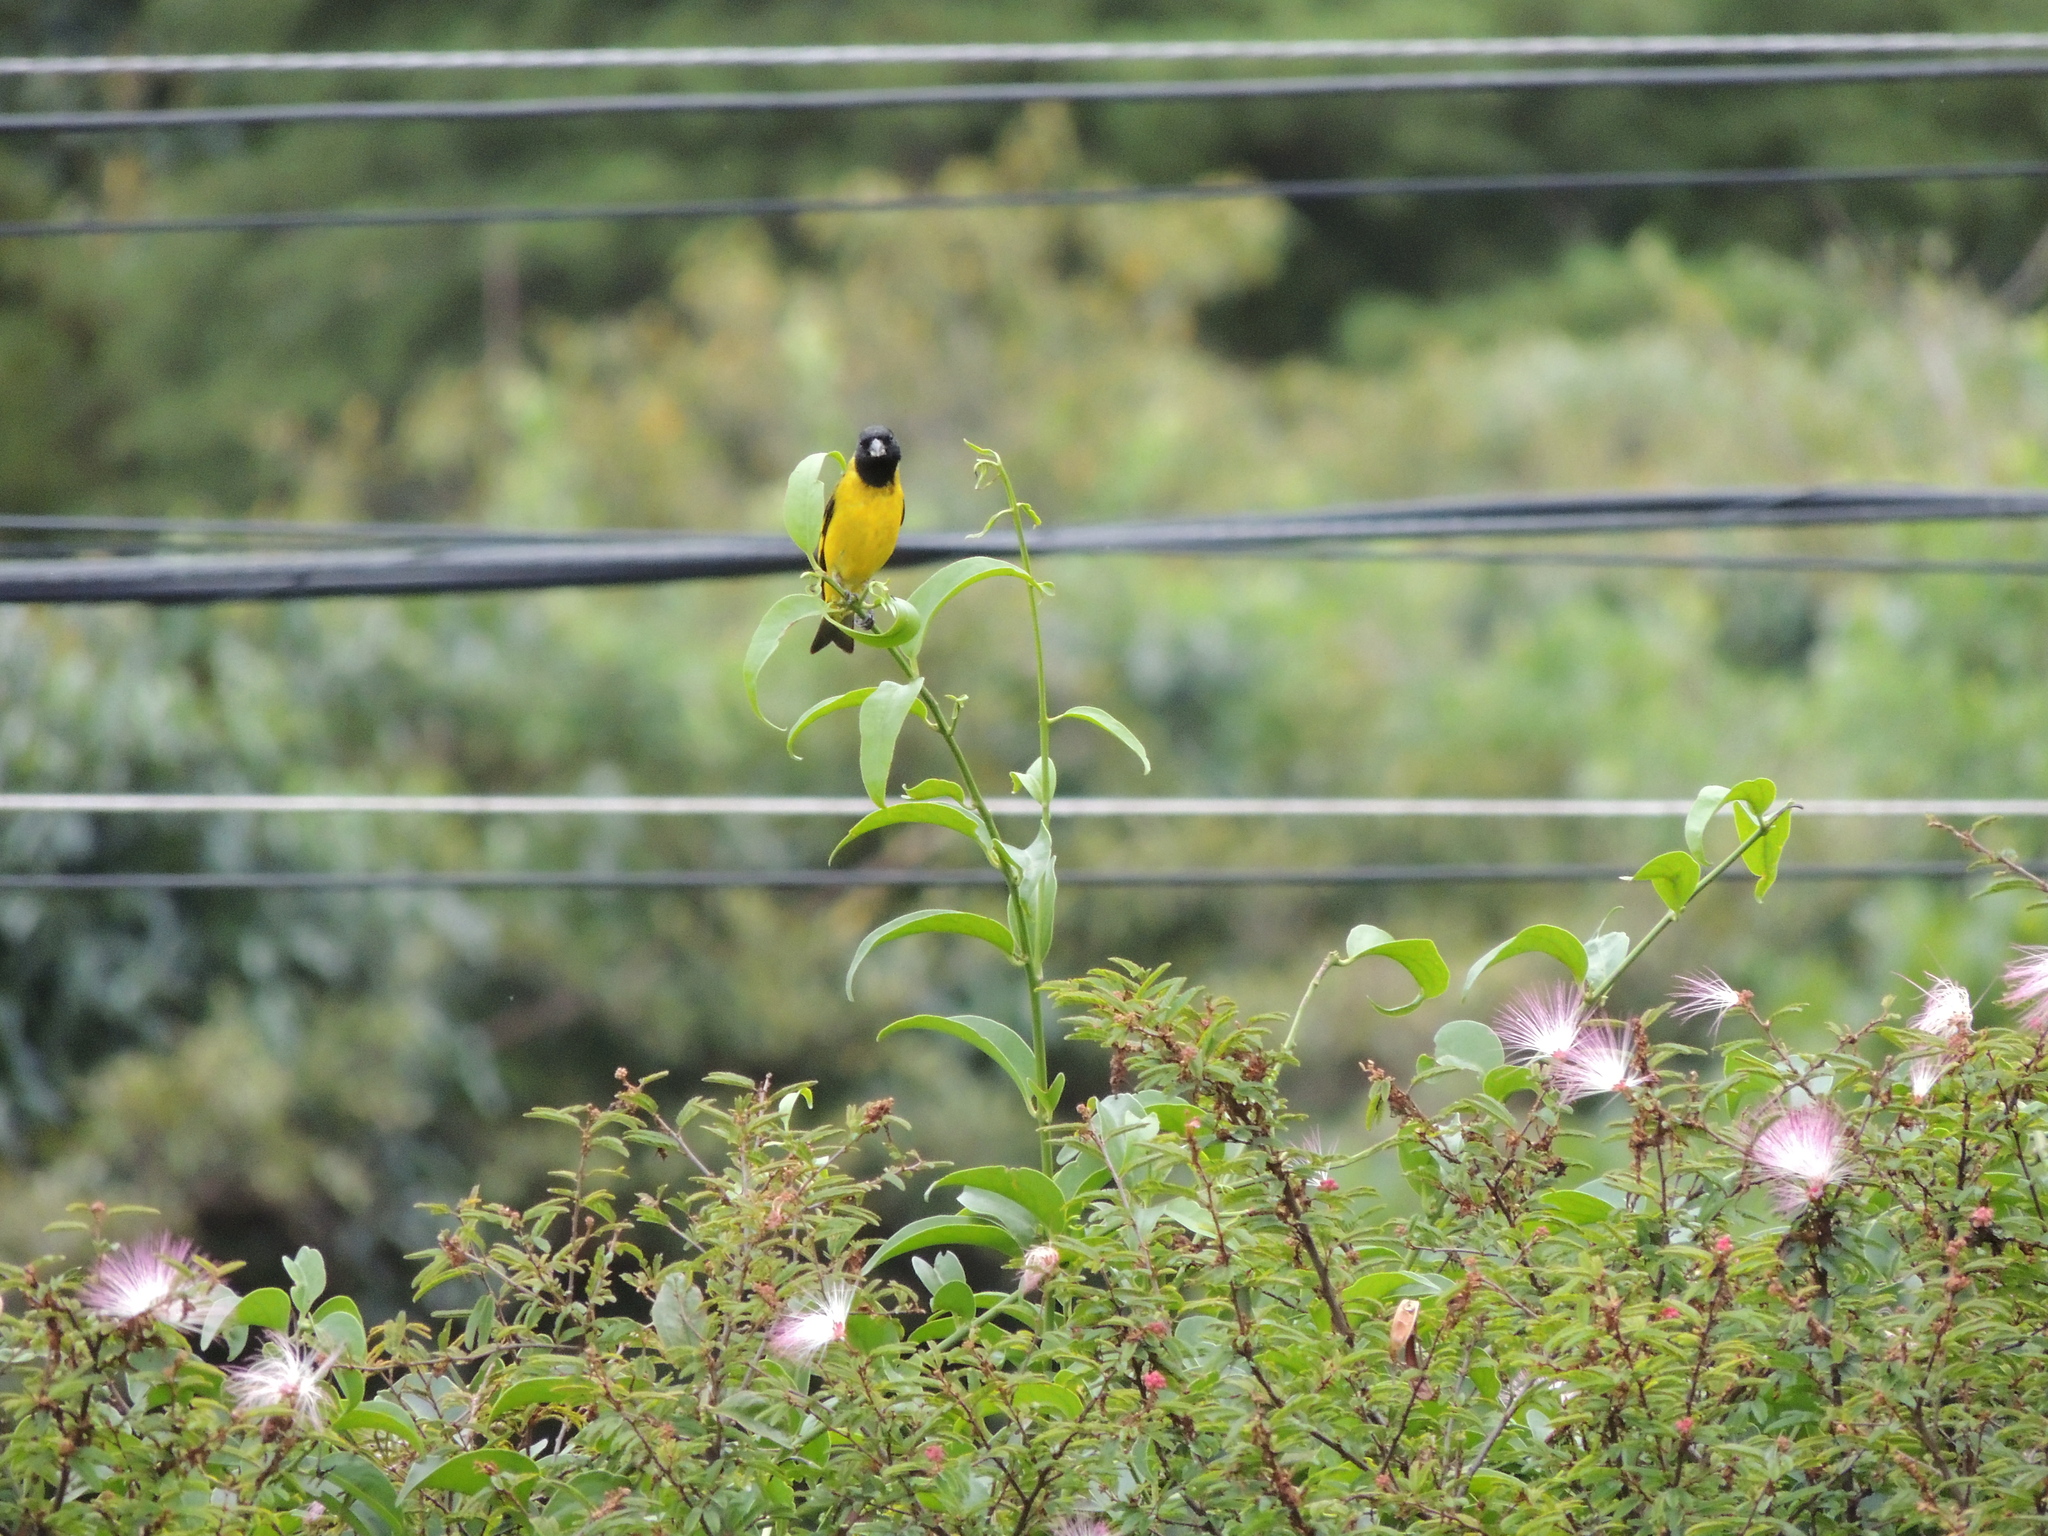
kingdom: Animalia
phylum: Chordata
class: Aves
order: Passeriformes
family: Fringillidae
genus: Spinus
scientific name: Spinus magellanicus
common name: Hooded siskin
